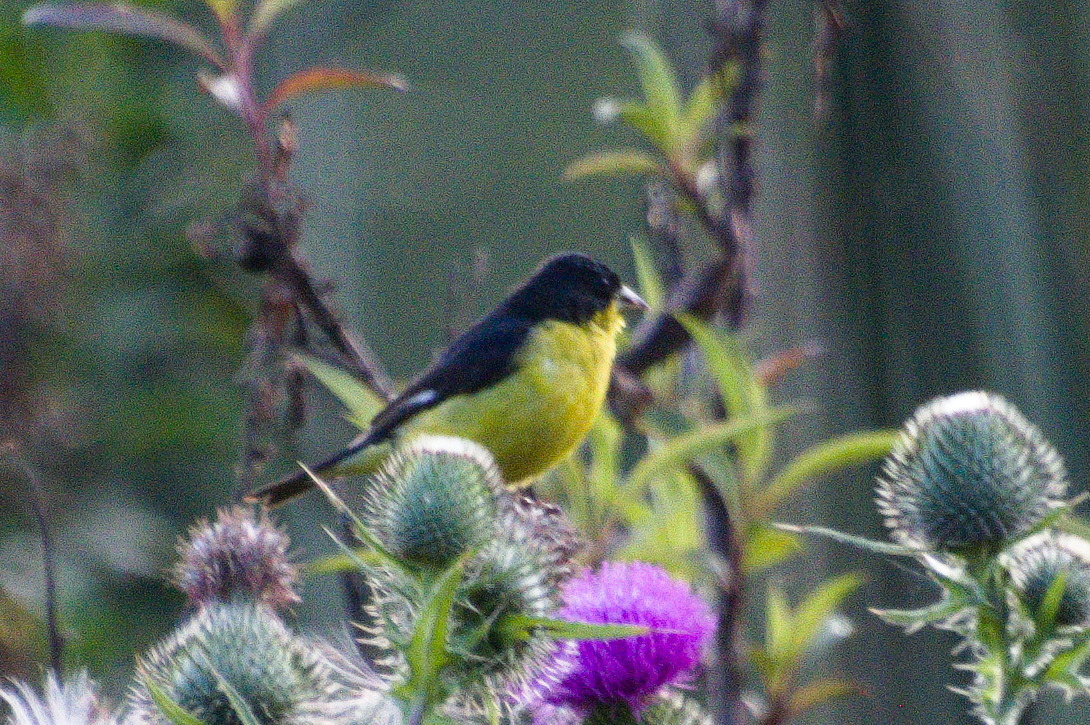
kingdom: Animalia
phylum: Chordata
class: Aves
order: Passeriformes
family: Fringillidae
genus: Spinus
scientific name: Spinus psaltria
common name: Lesser goldfinch
